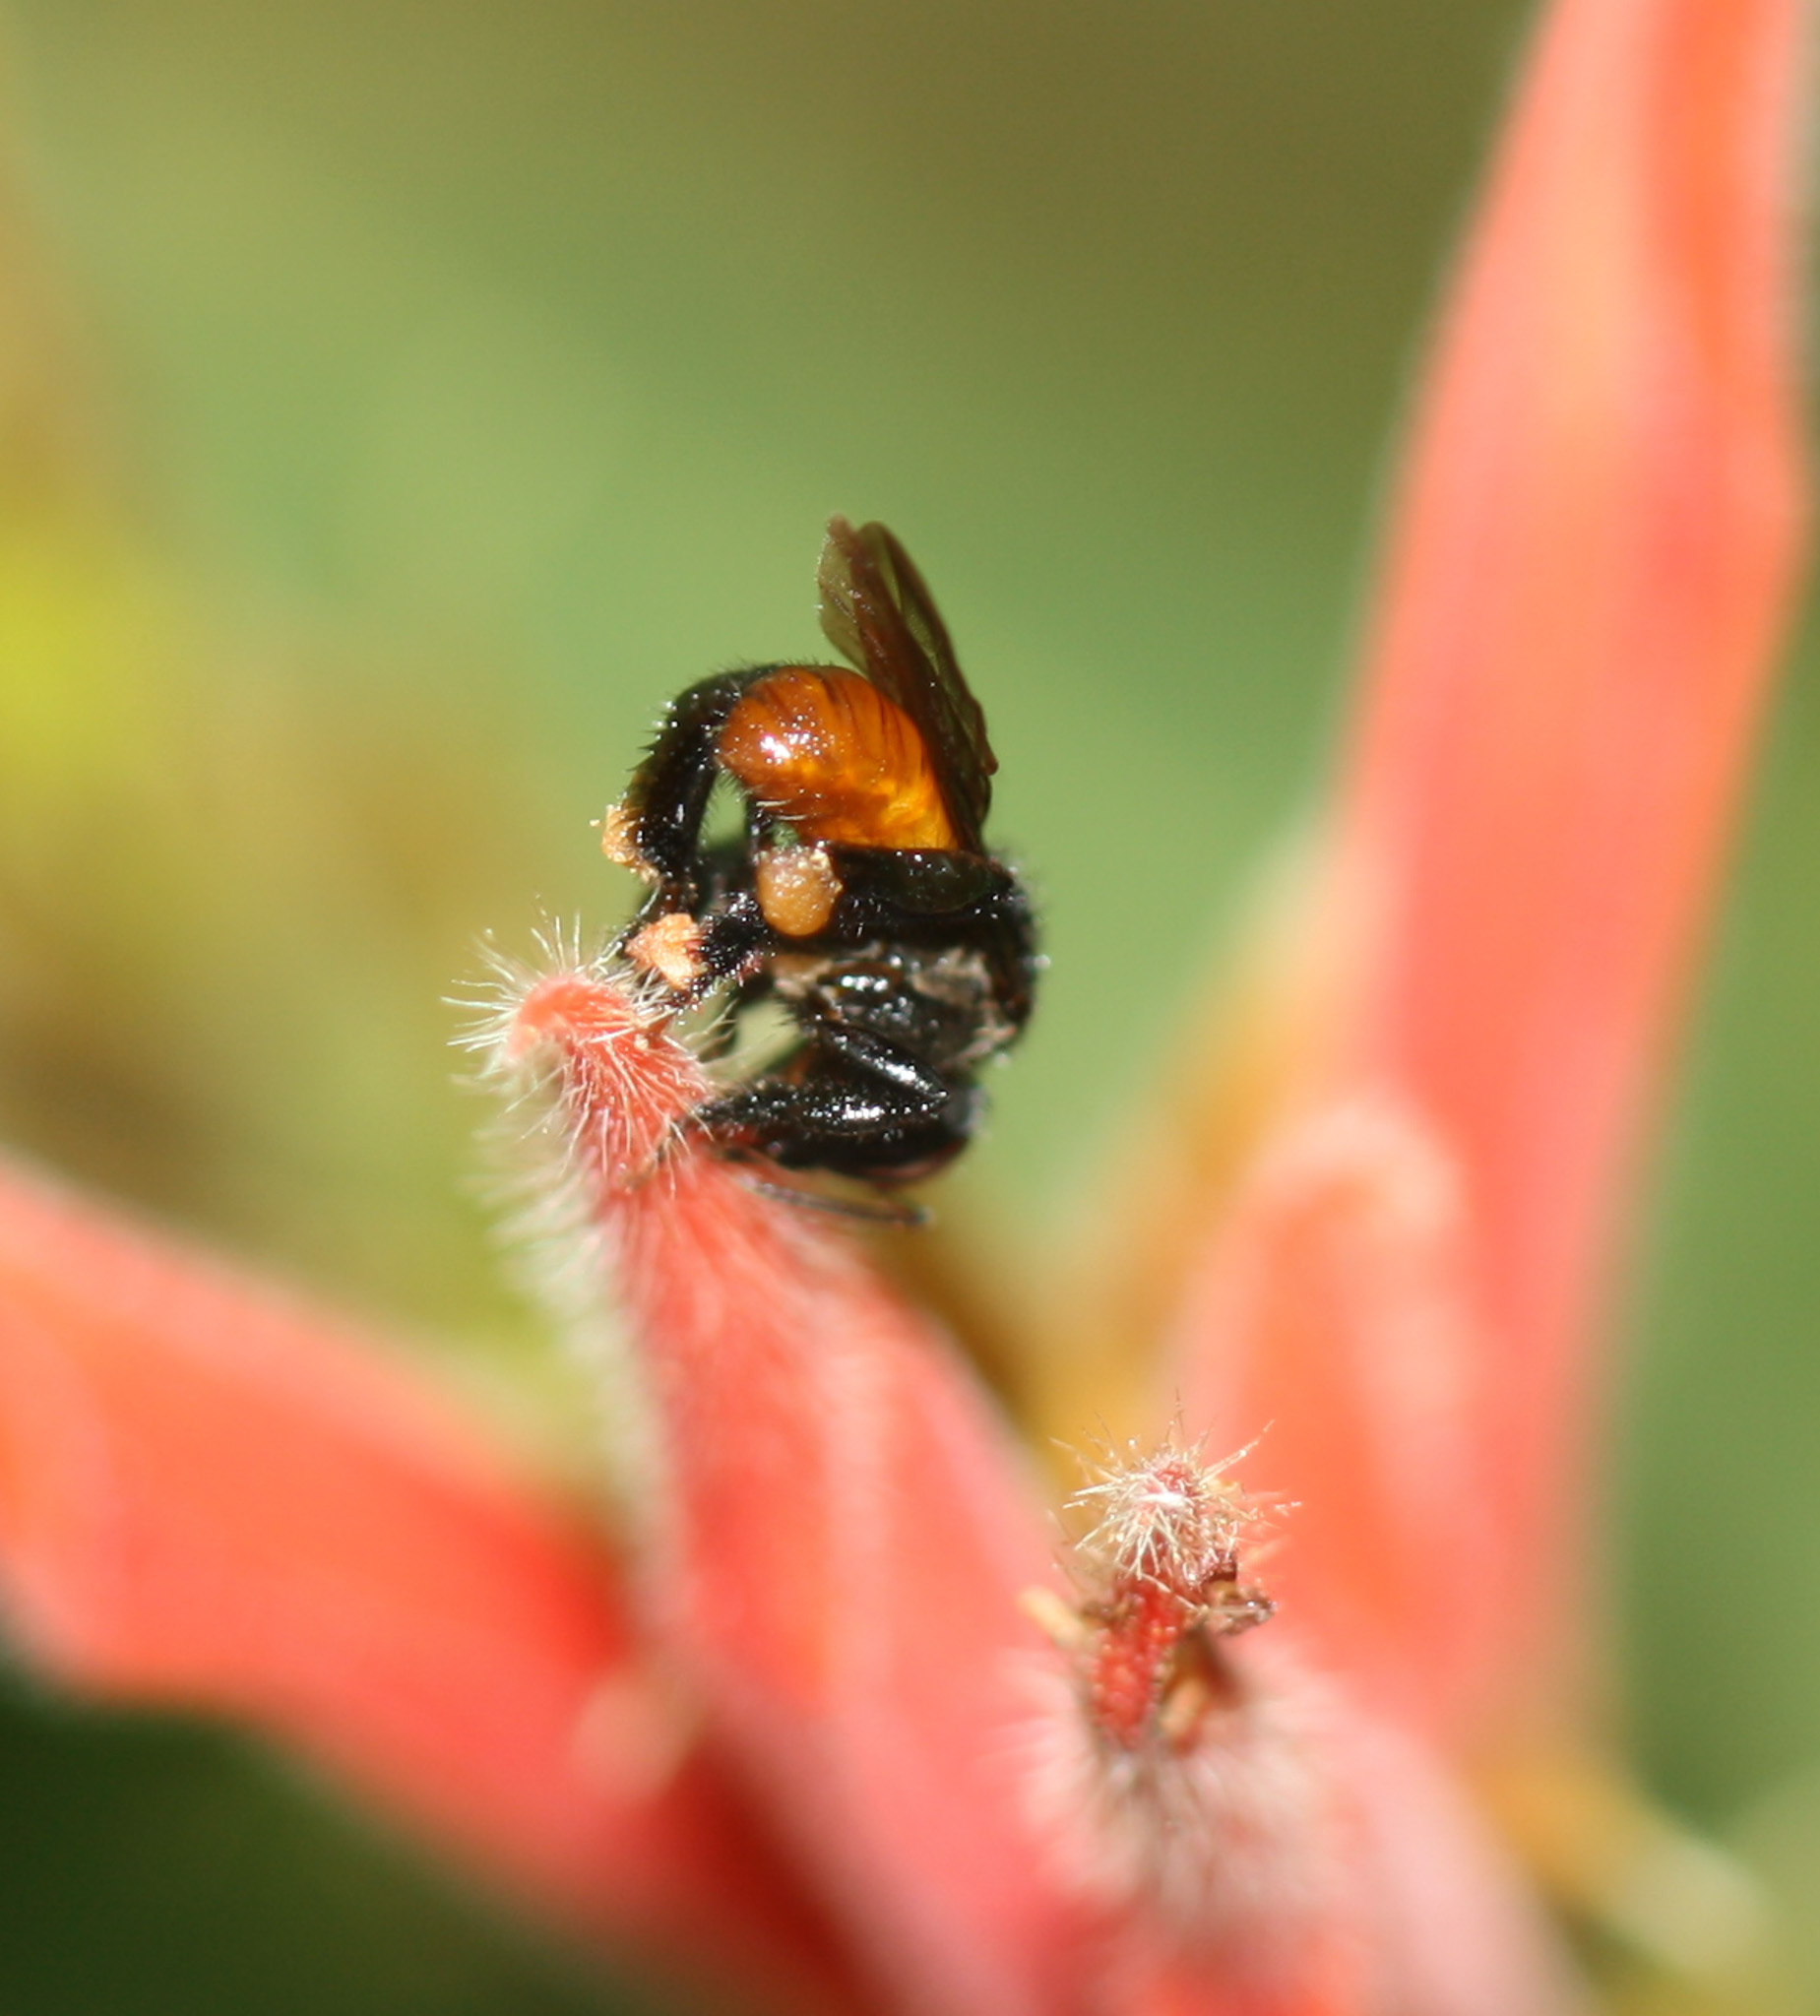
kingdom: Animalia
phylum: Arthropoda
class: Insecta
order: Hymenoptera
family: Apidae
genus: Trigona
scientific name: Trigona fulviventris
